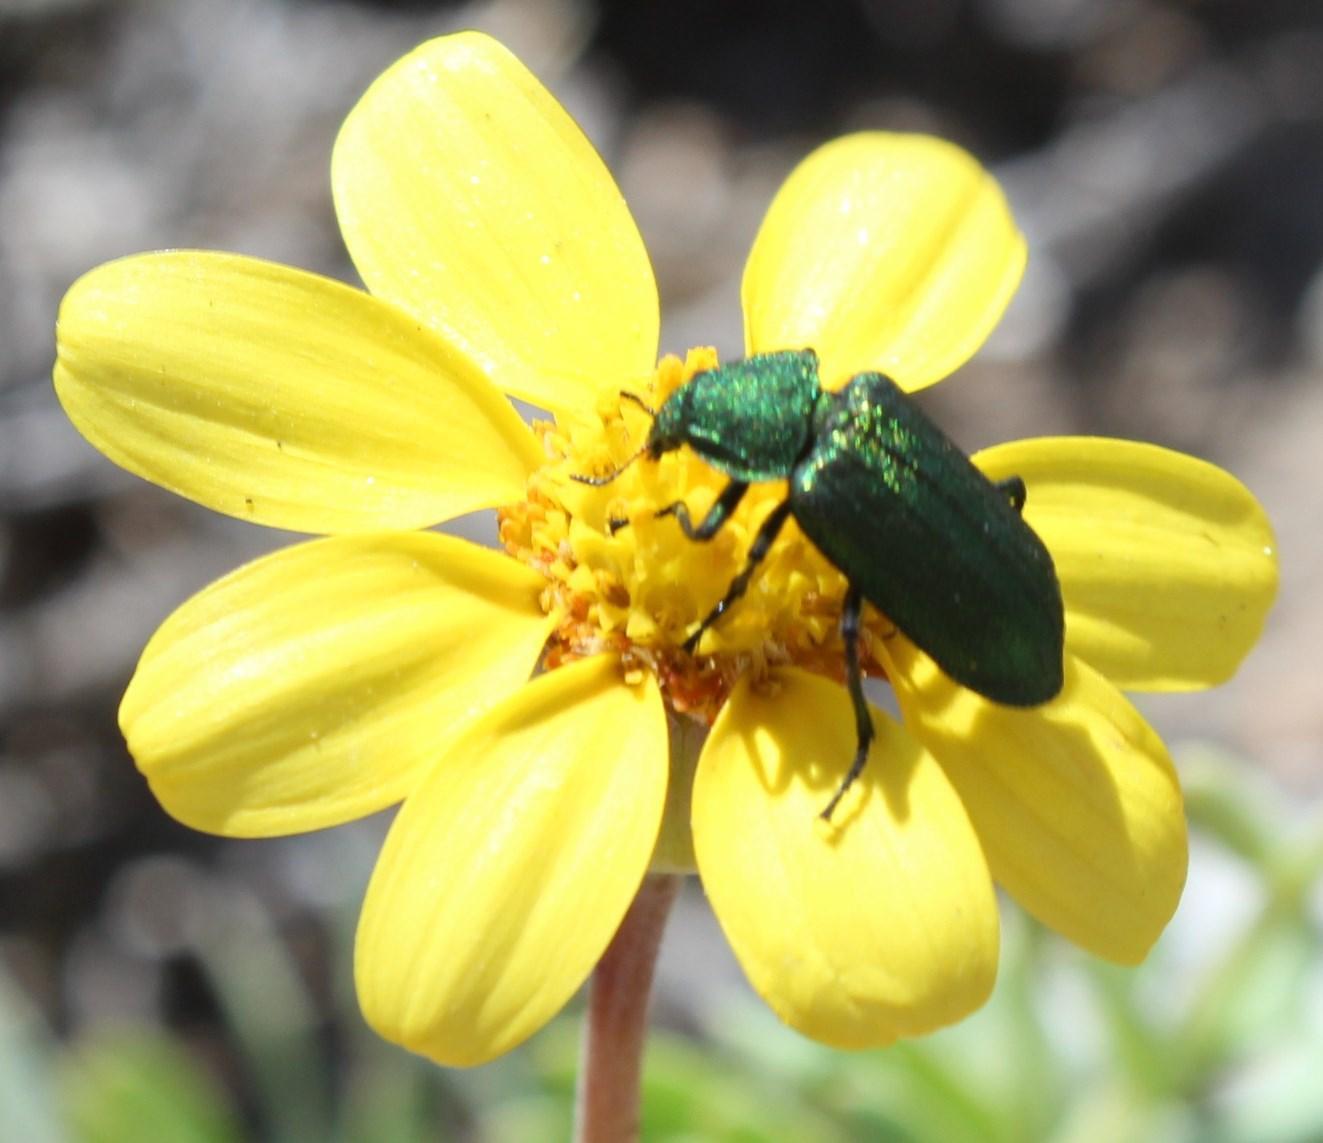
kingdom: Animalia
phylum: Arthropoda
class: Insecta
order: Coleoptera
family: Melyridae
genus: Melyris
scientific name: Melyris viridis
